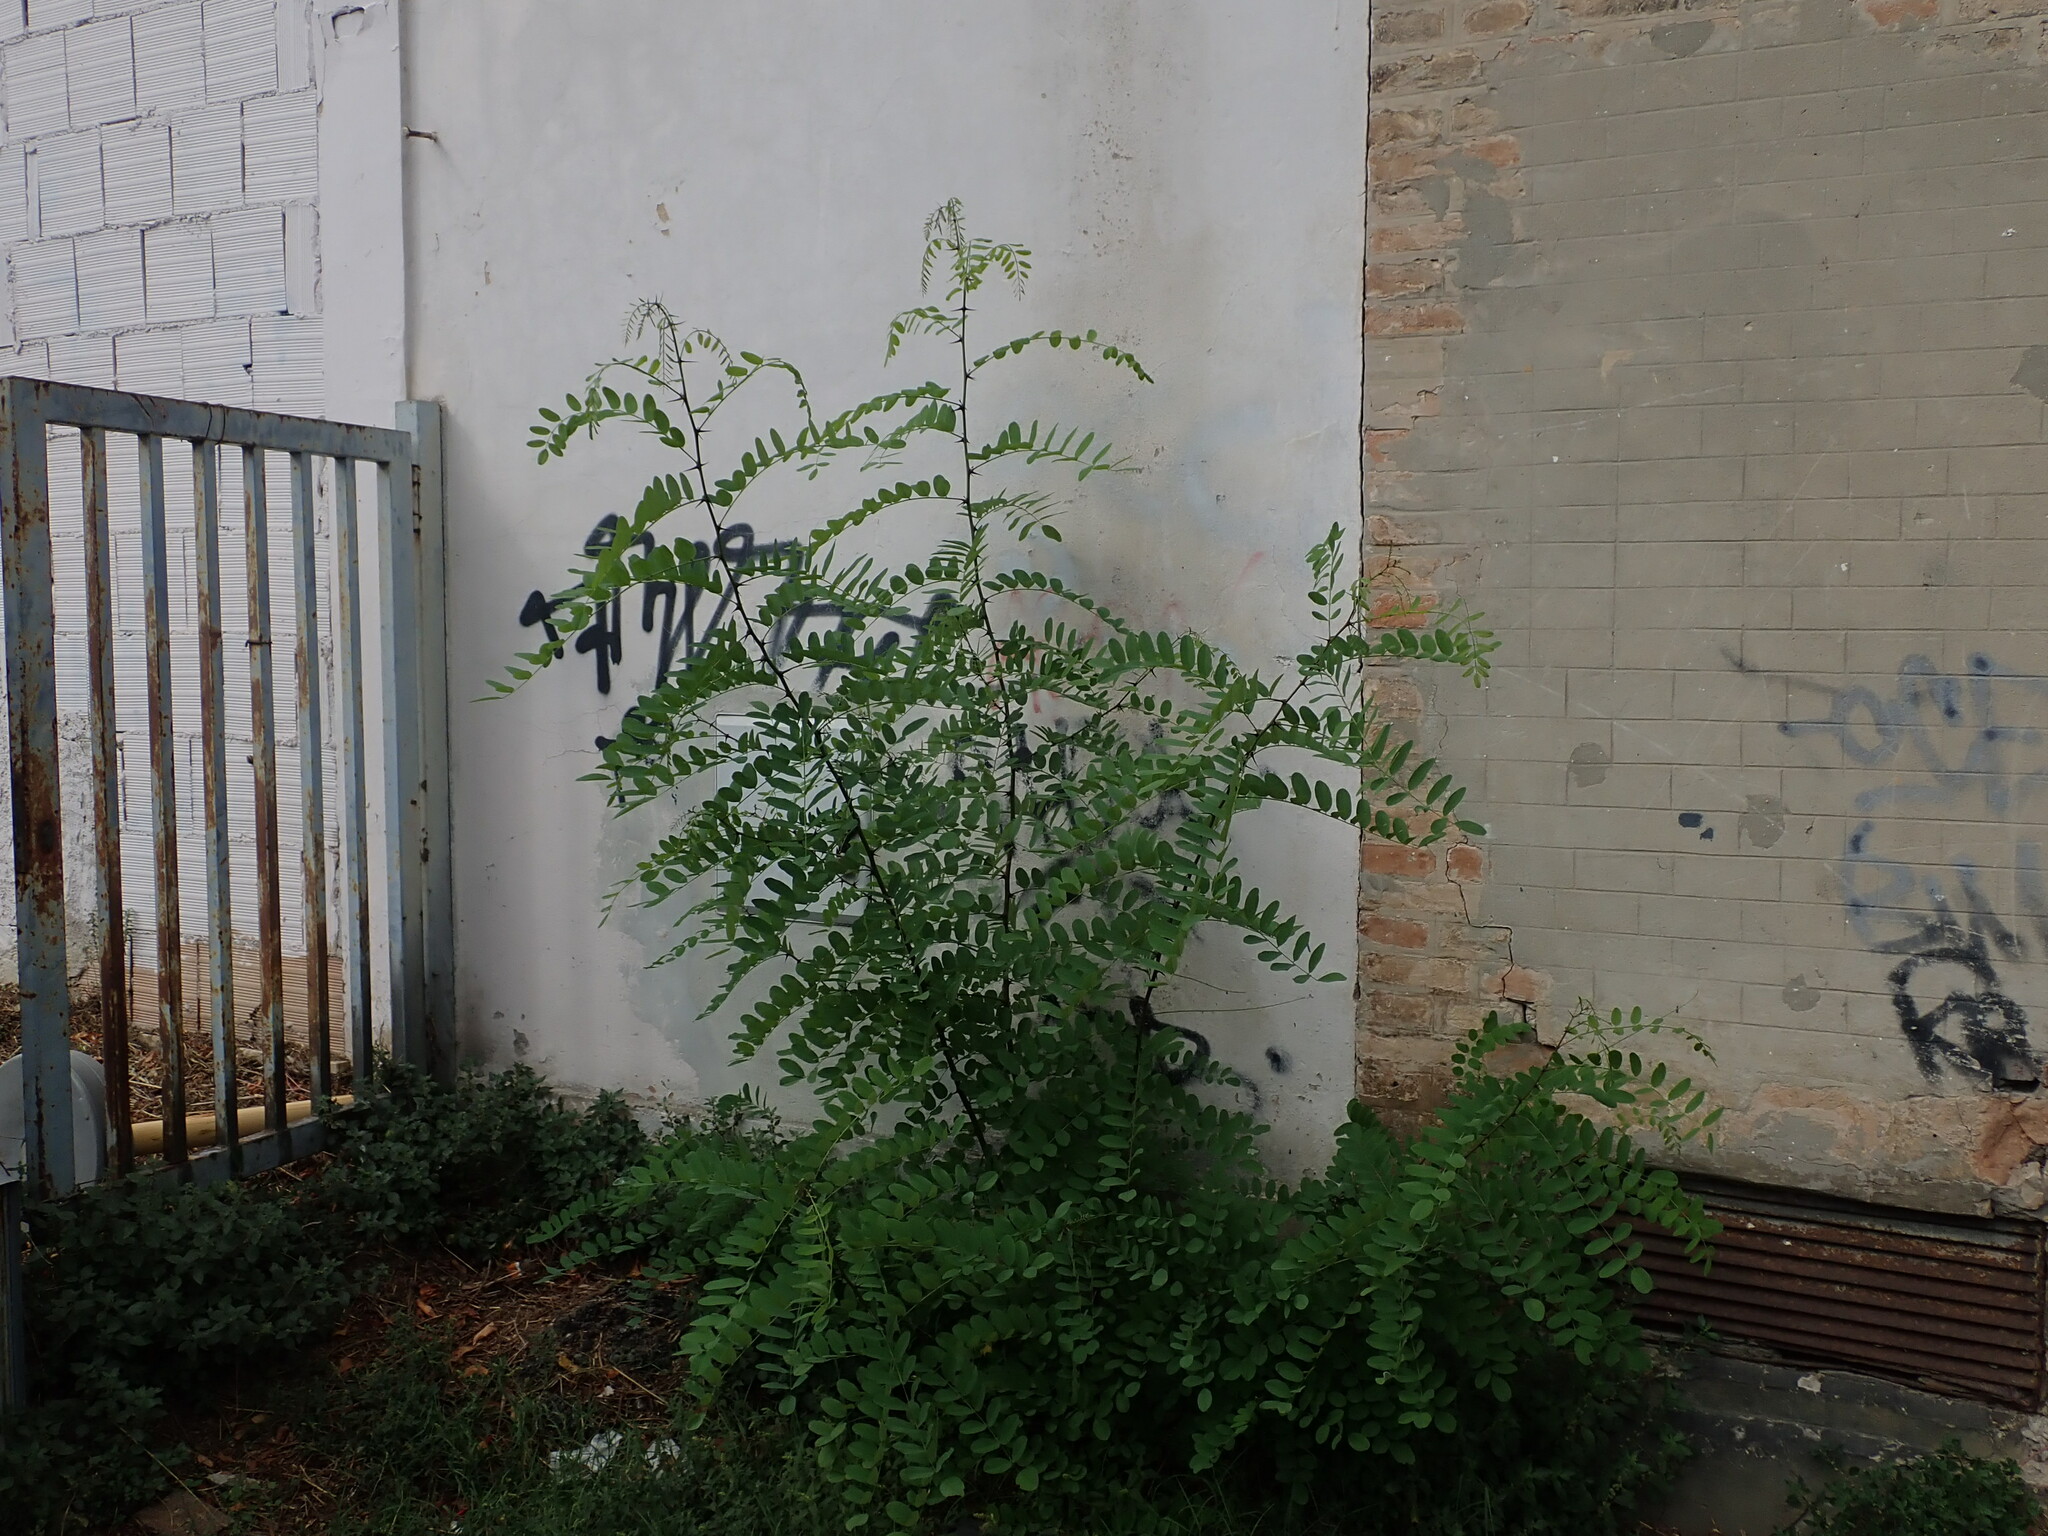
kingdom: Plantae
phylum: Tracheophyta
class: Magnoliopsida
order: Fabales
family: Fabaceae
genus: Robinia
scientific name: Robinia pseudoacacia
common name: Black locust
